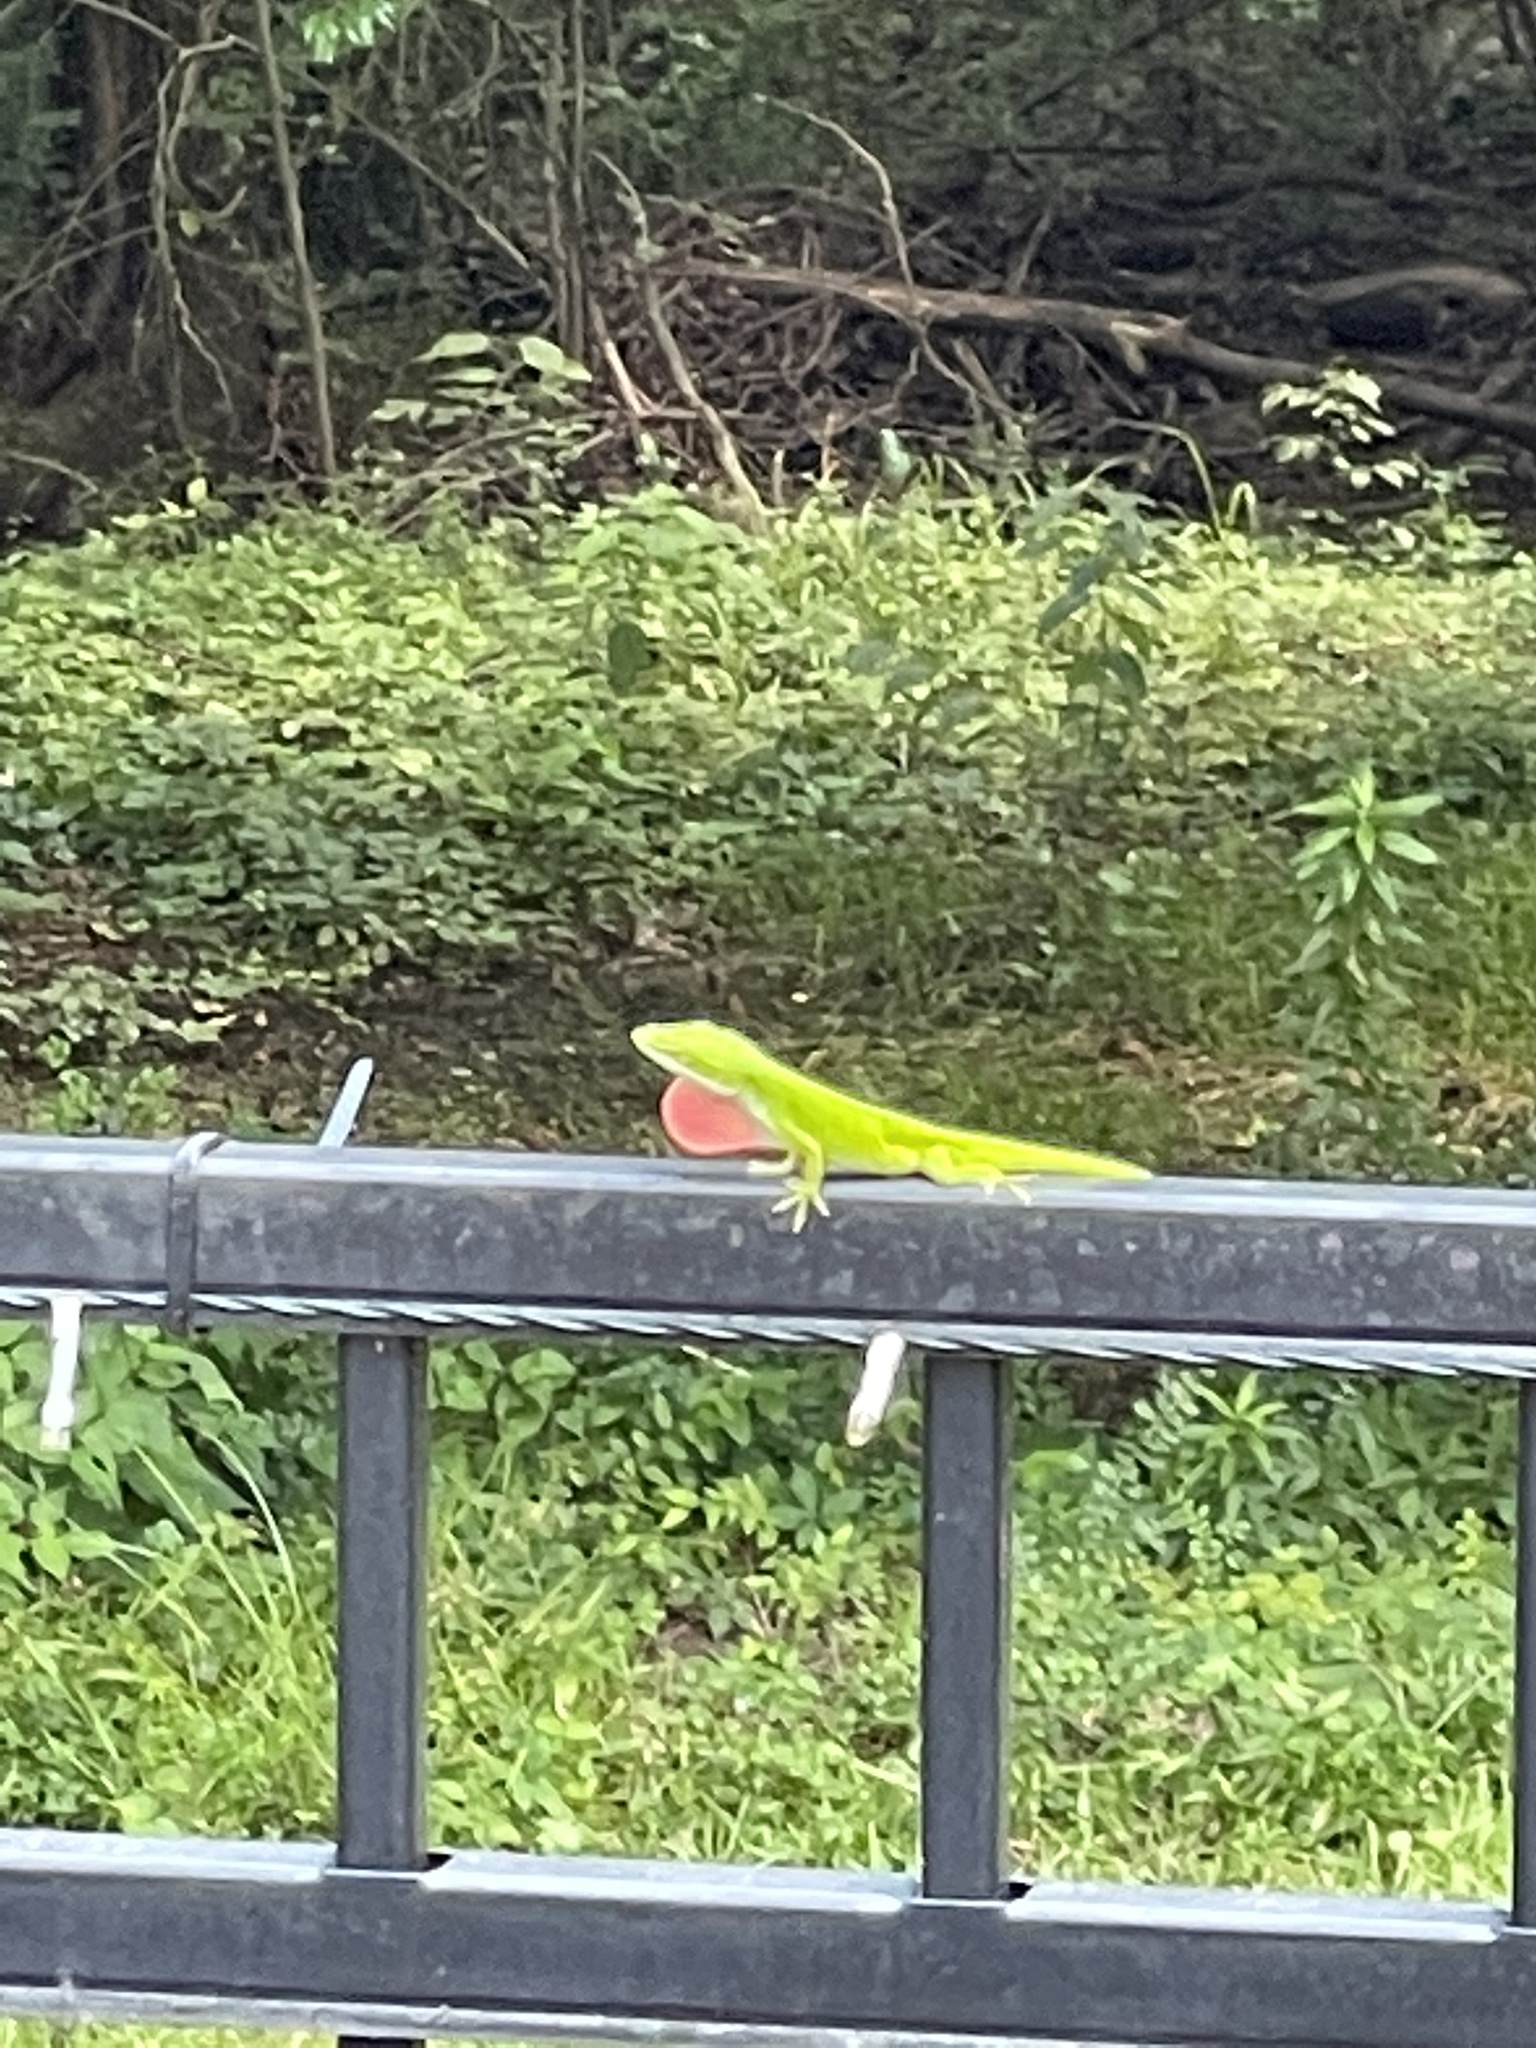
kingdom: Animalia
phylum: Chordata
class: Squamata
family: Dactyloidae
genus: Anolis
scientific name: Anolis carolinensis
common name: Green anole
